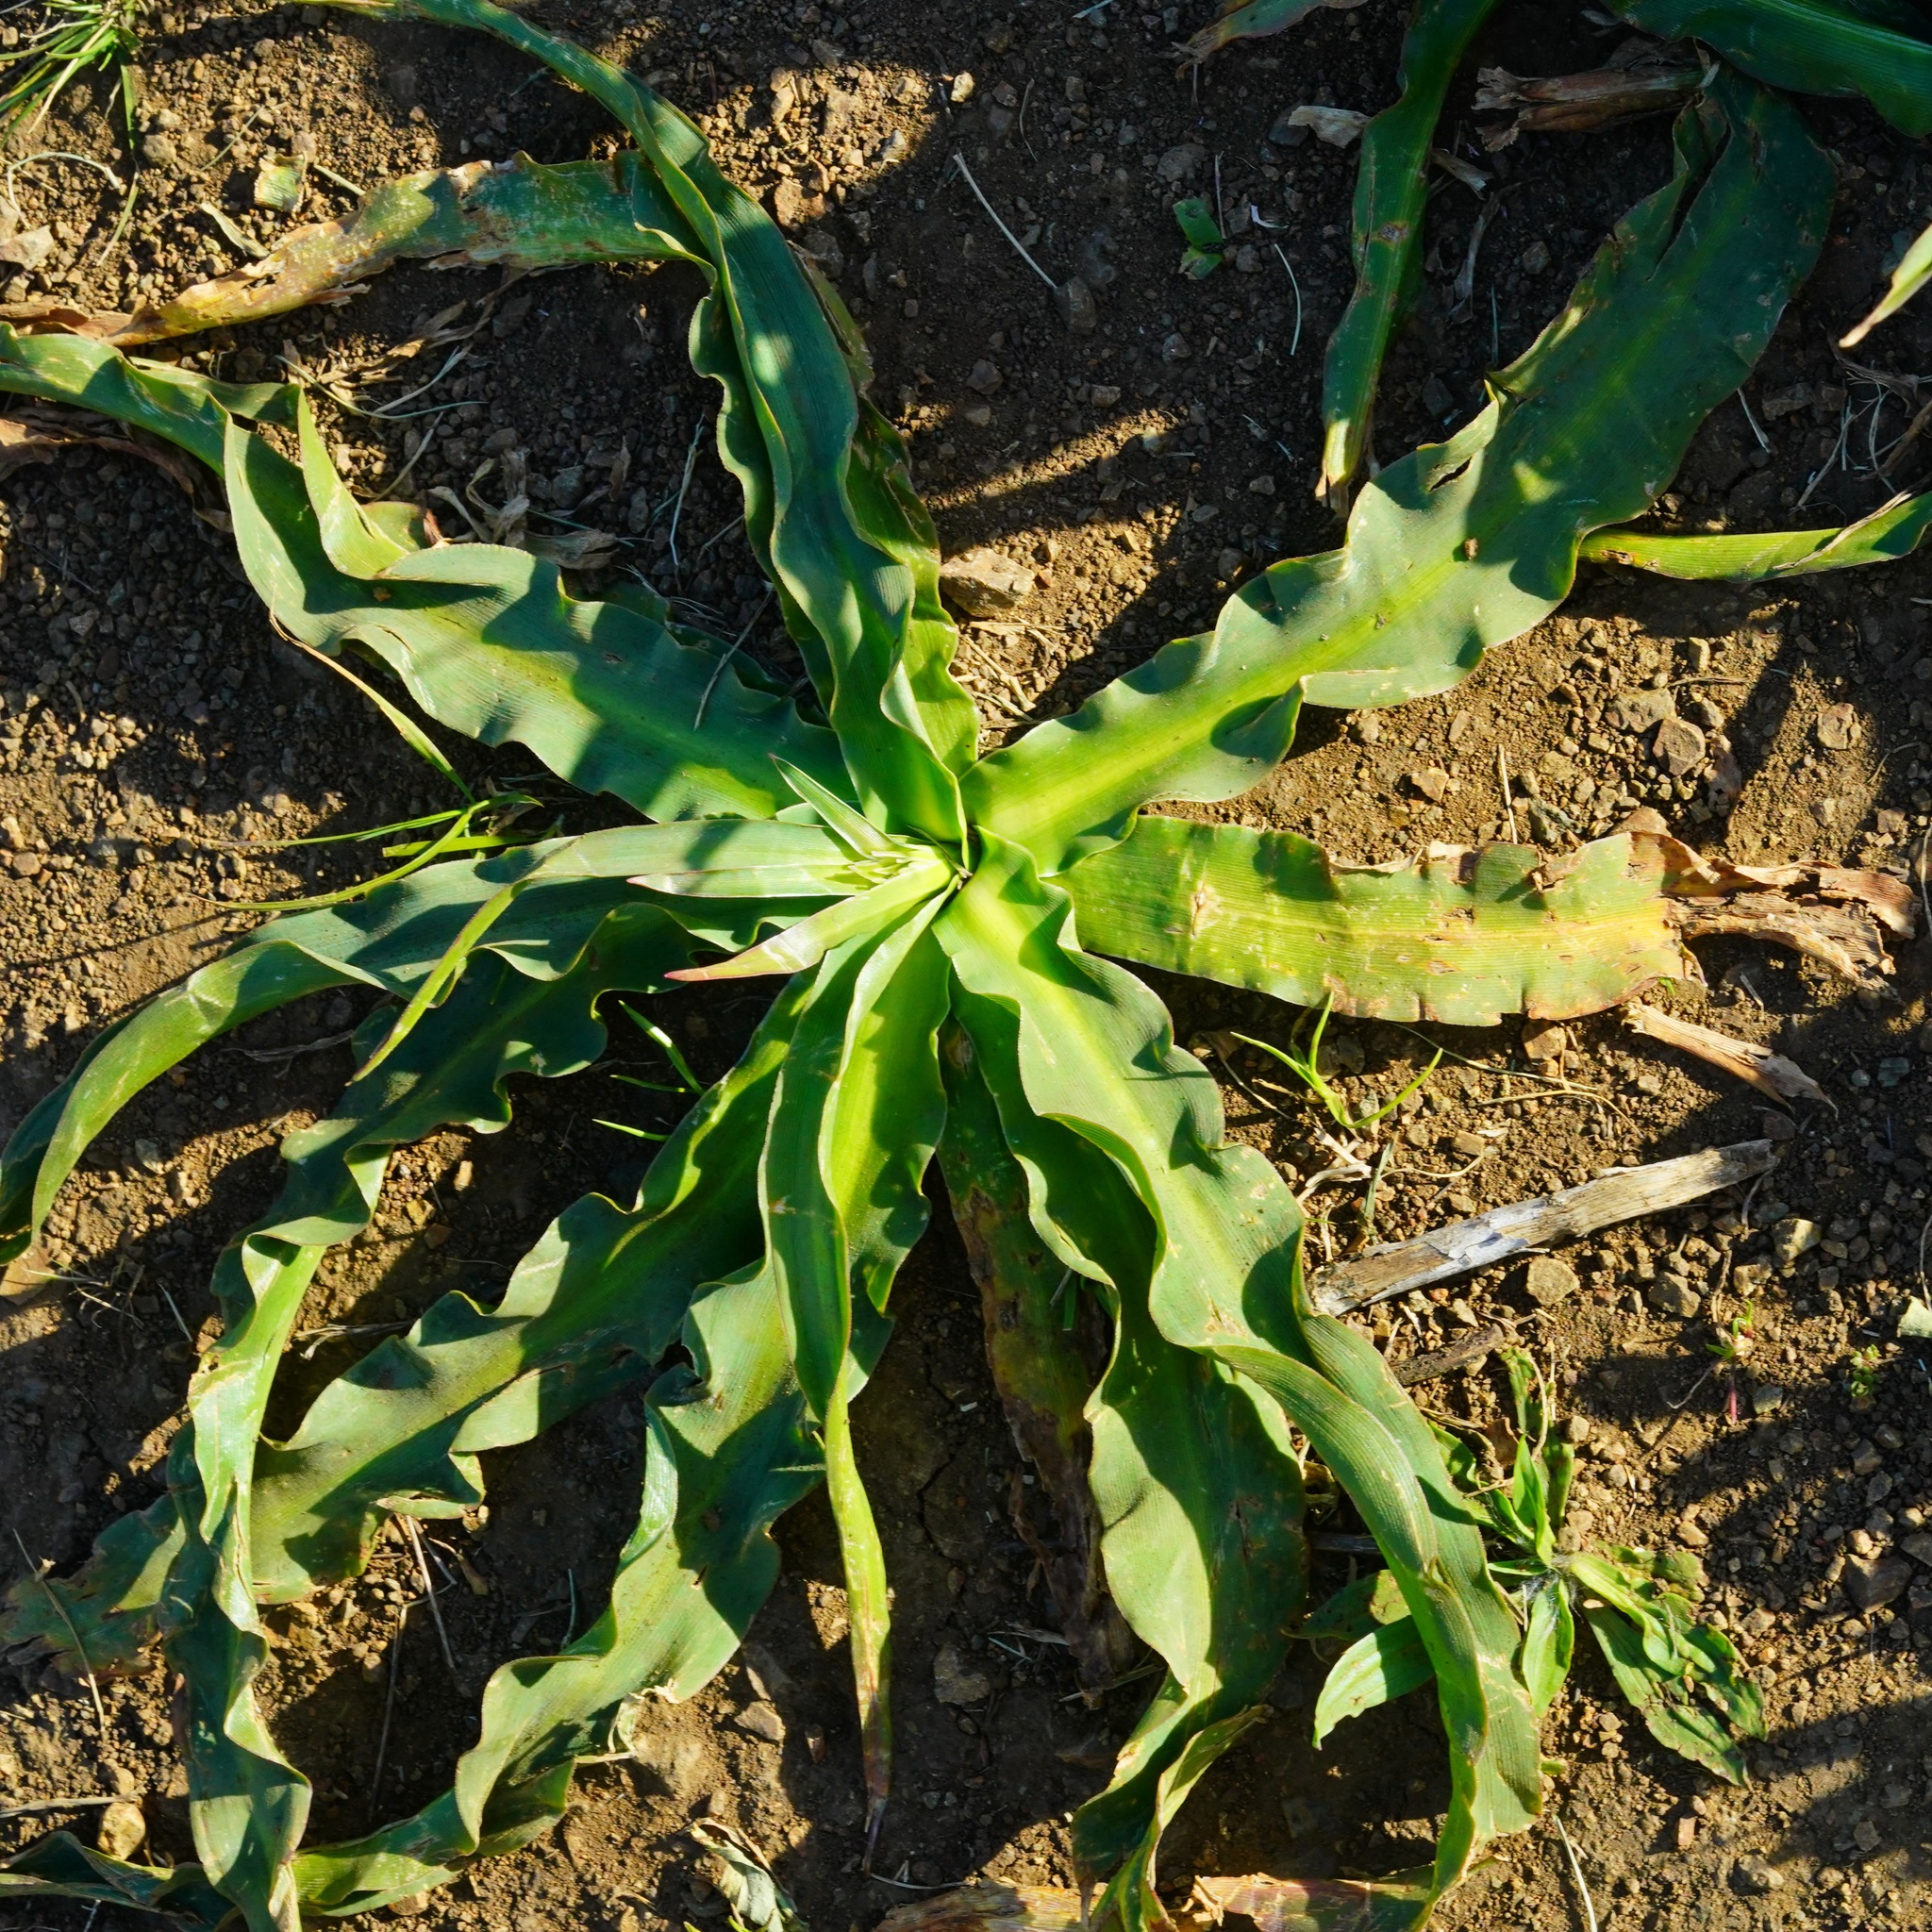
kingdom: Plantae
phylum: Tracheophyta
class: Liliopsida
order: Asparagales
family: Asparagaceae
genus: Chlorogalum
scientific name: Chlorogalum pomeridianum
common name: Amole
